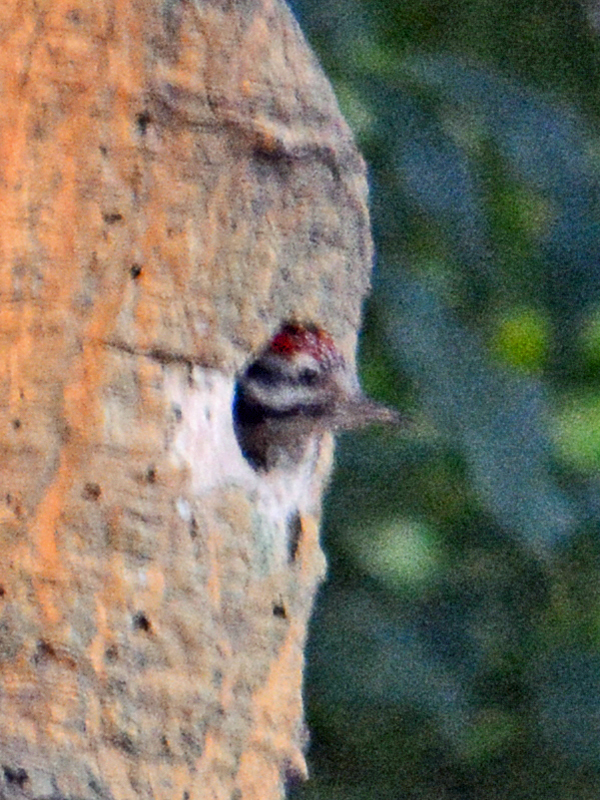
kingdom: Animalia
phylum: Chordata
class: Aves
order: Piciformes
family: Picidae
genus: Dryobates
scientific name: Dryobates scalaris
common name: Ladder-backed woodpecker
